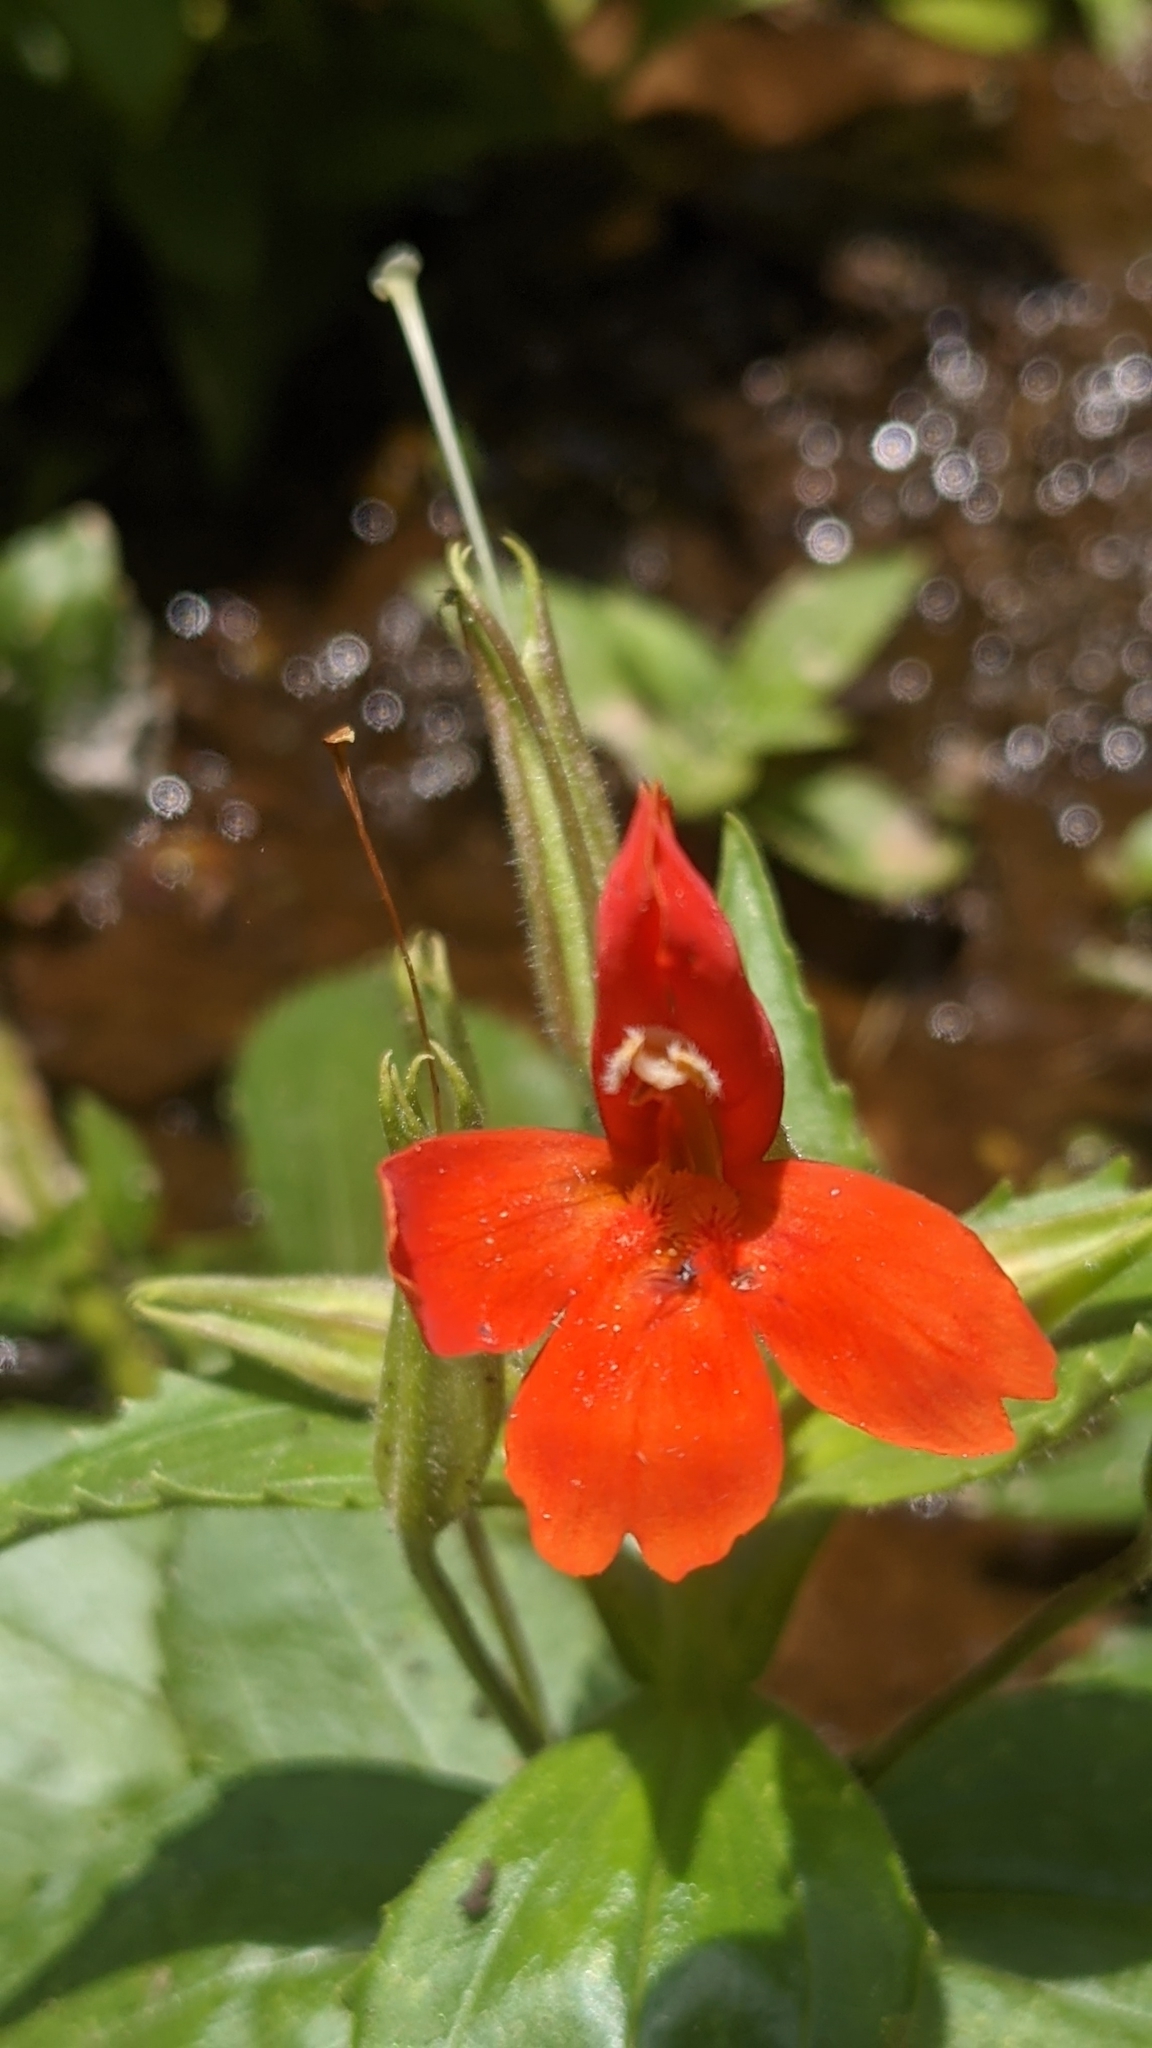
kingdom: Plantae
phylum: Tracheophyta
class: Magnoliopsida
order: Lamiales
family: Phrymaceae
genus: Erythranthe
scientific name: Erythranthe verbenacea
